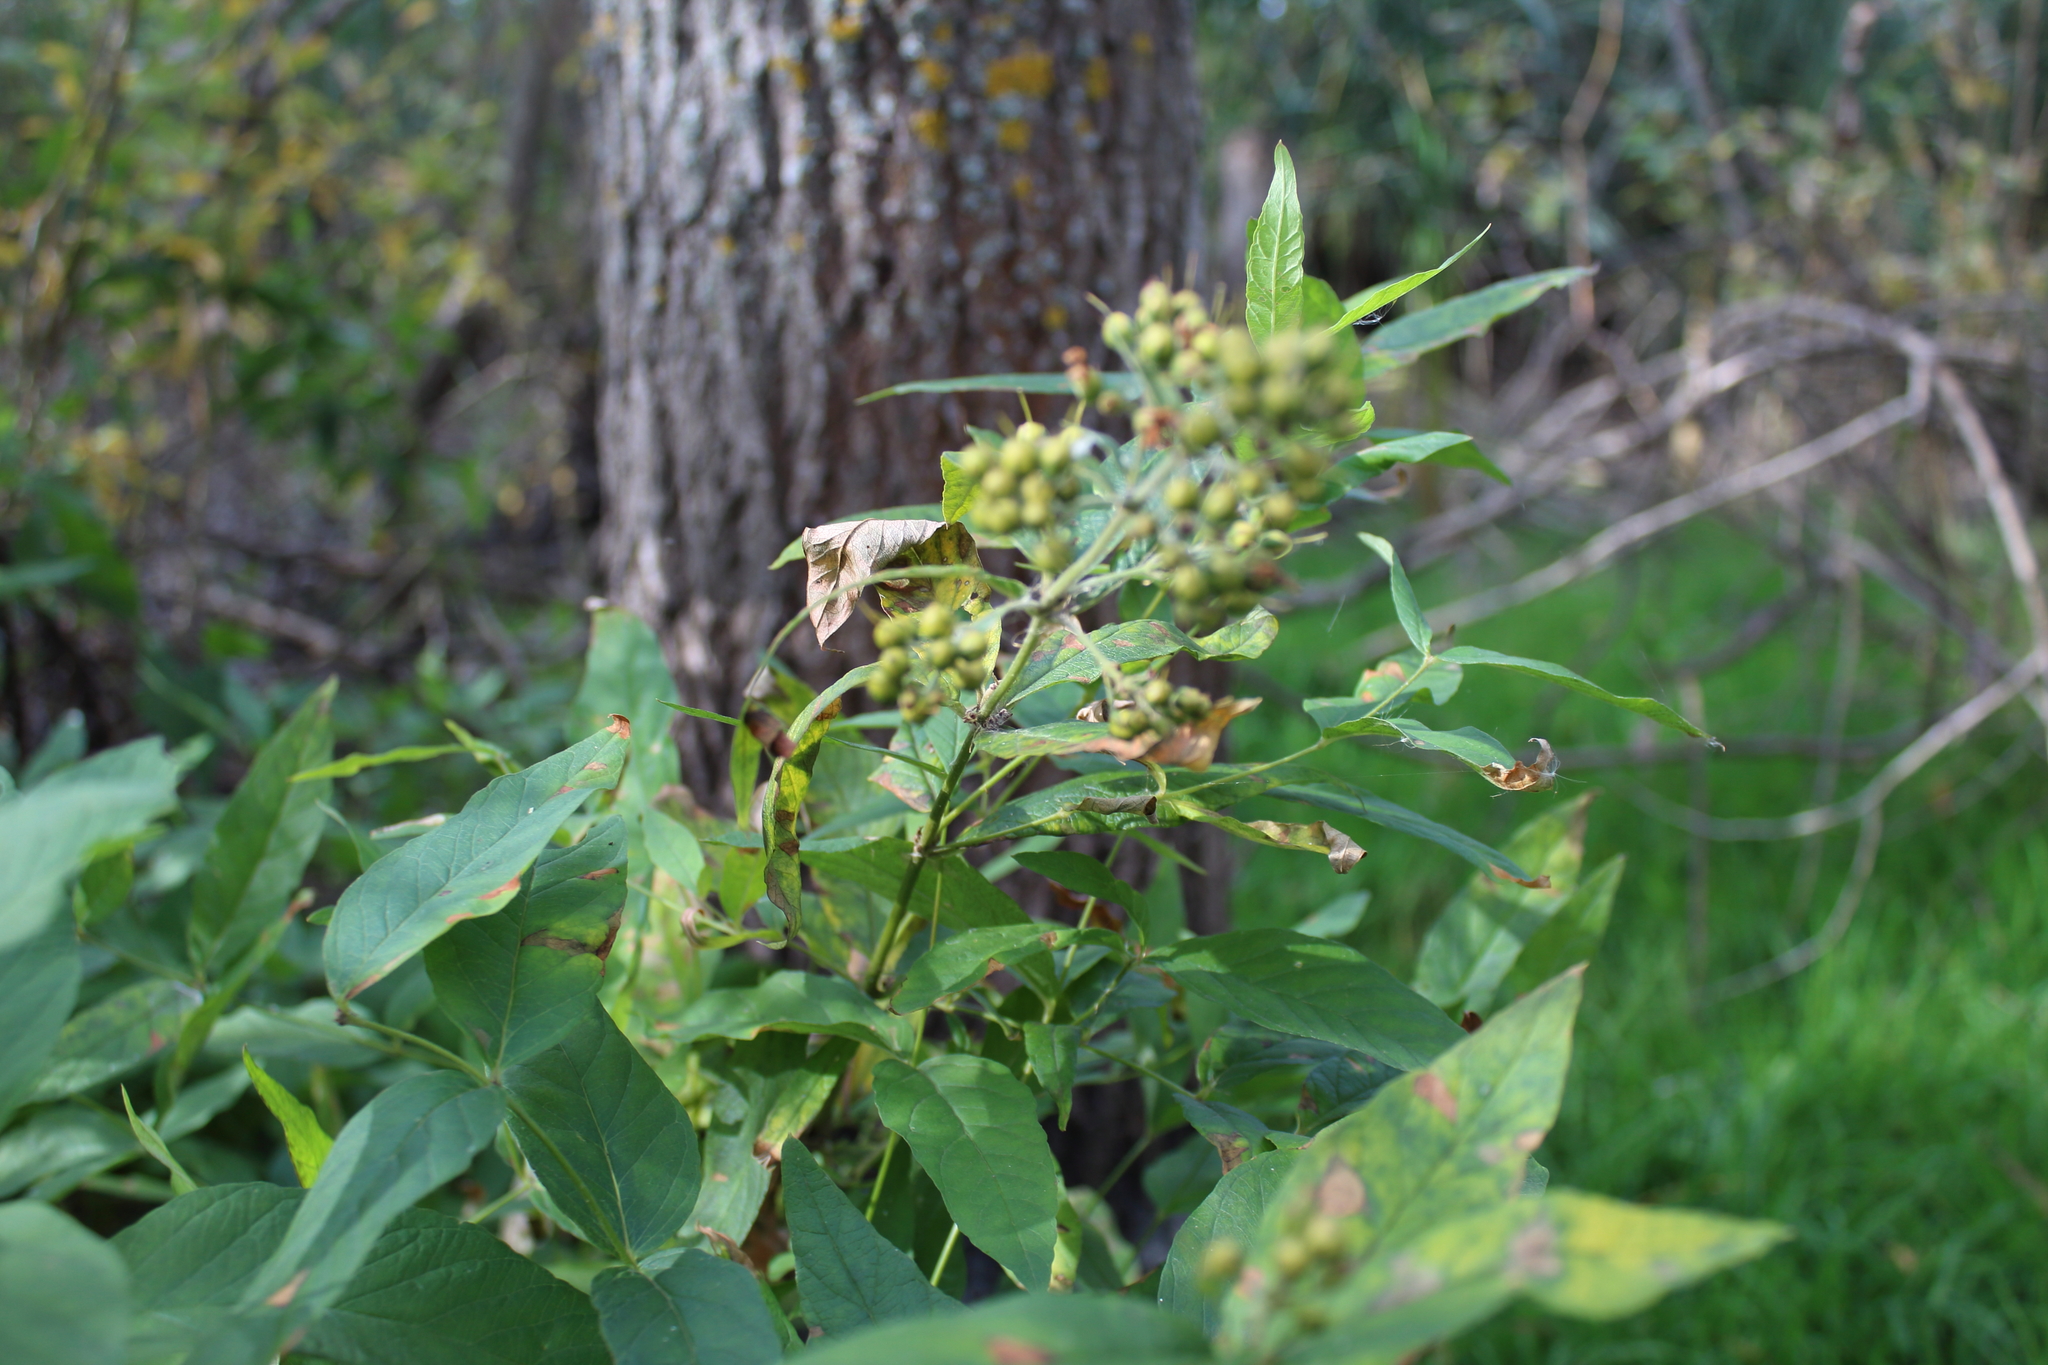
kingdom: Plantae
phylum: Tracheophyta
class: Magnoliopsida
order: Ericales
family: Primulaceae
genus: Lysimachia
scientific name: Lysimachia vulgaris
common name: Yellow loosestrife
